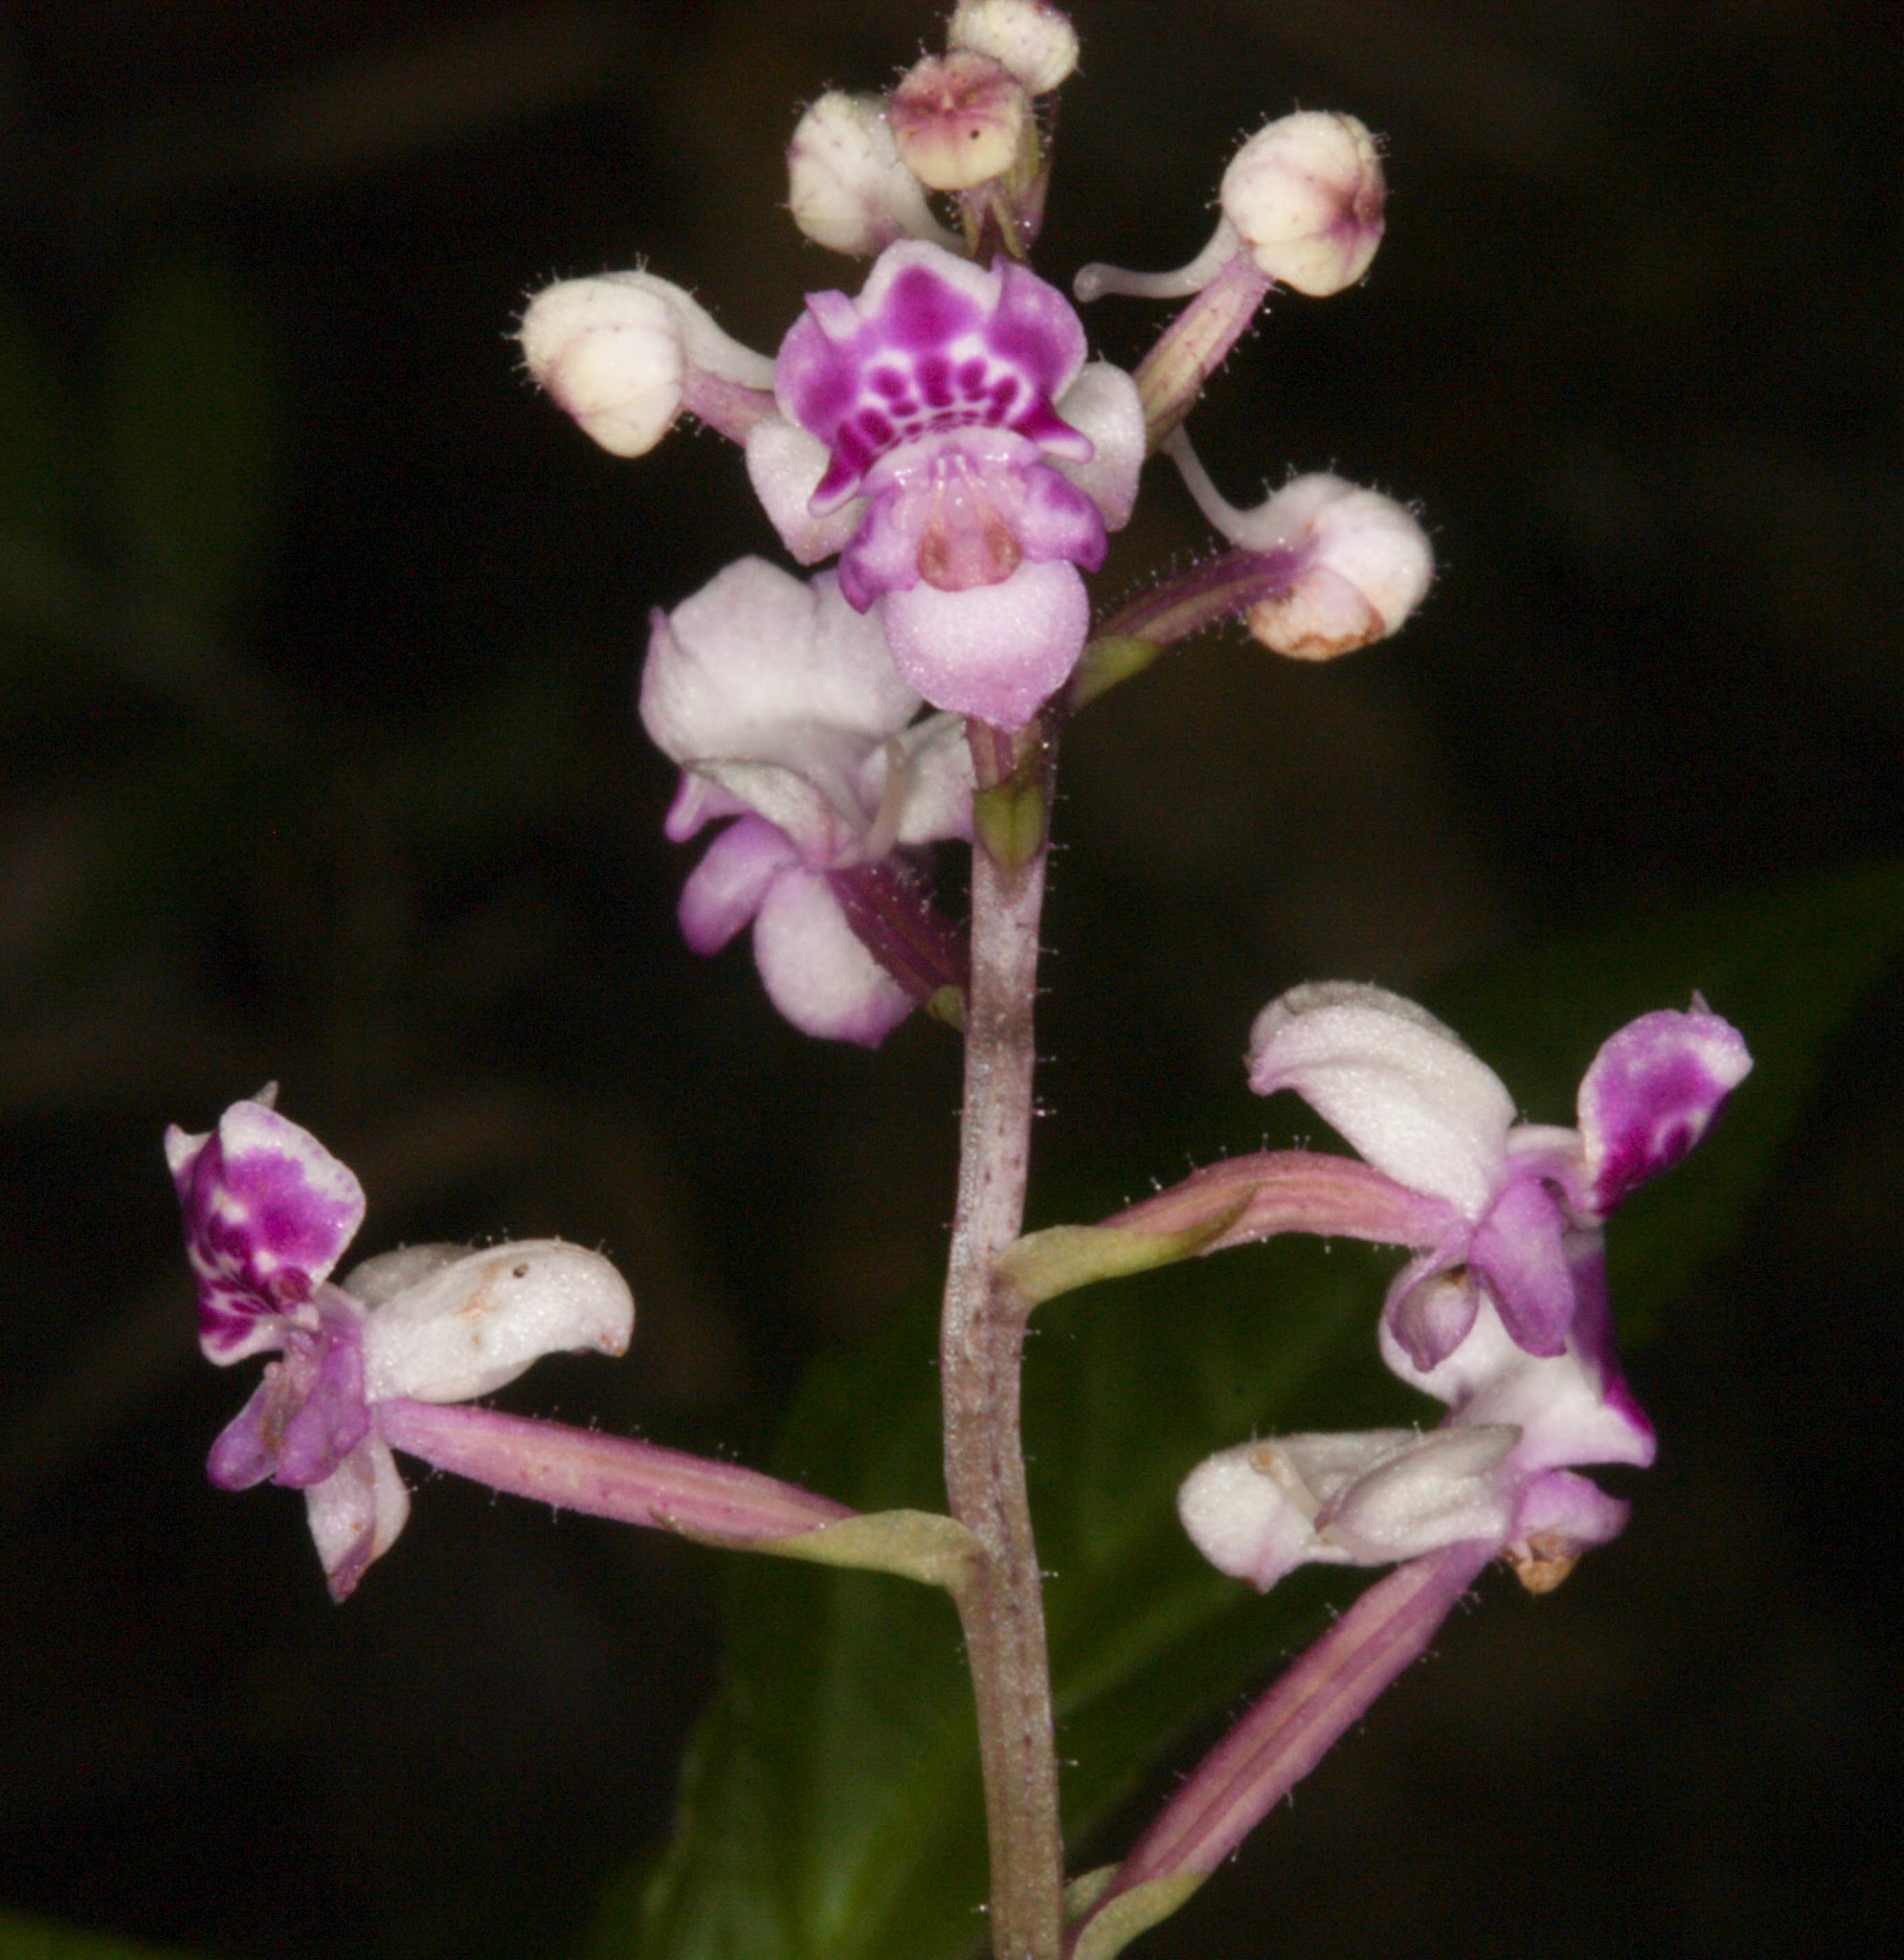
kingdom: Plantae
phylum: Tracheophyta
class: Liliopsida
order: Asparagales
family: Orchidaceae
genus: Cynorkis
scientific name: Cynorkis ridleyi
